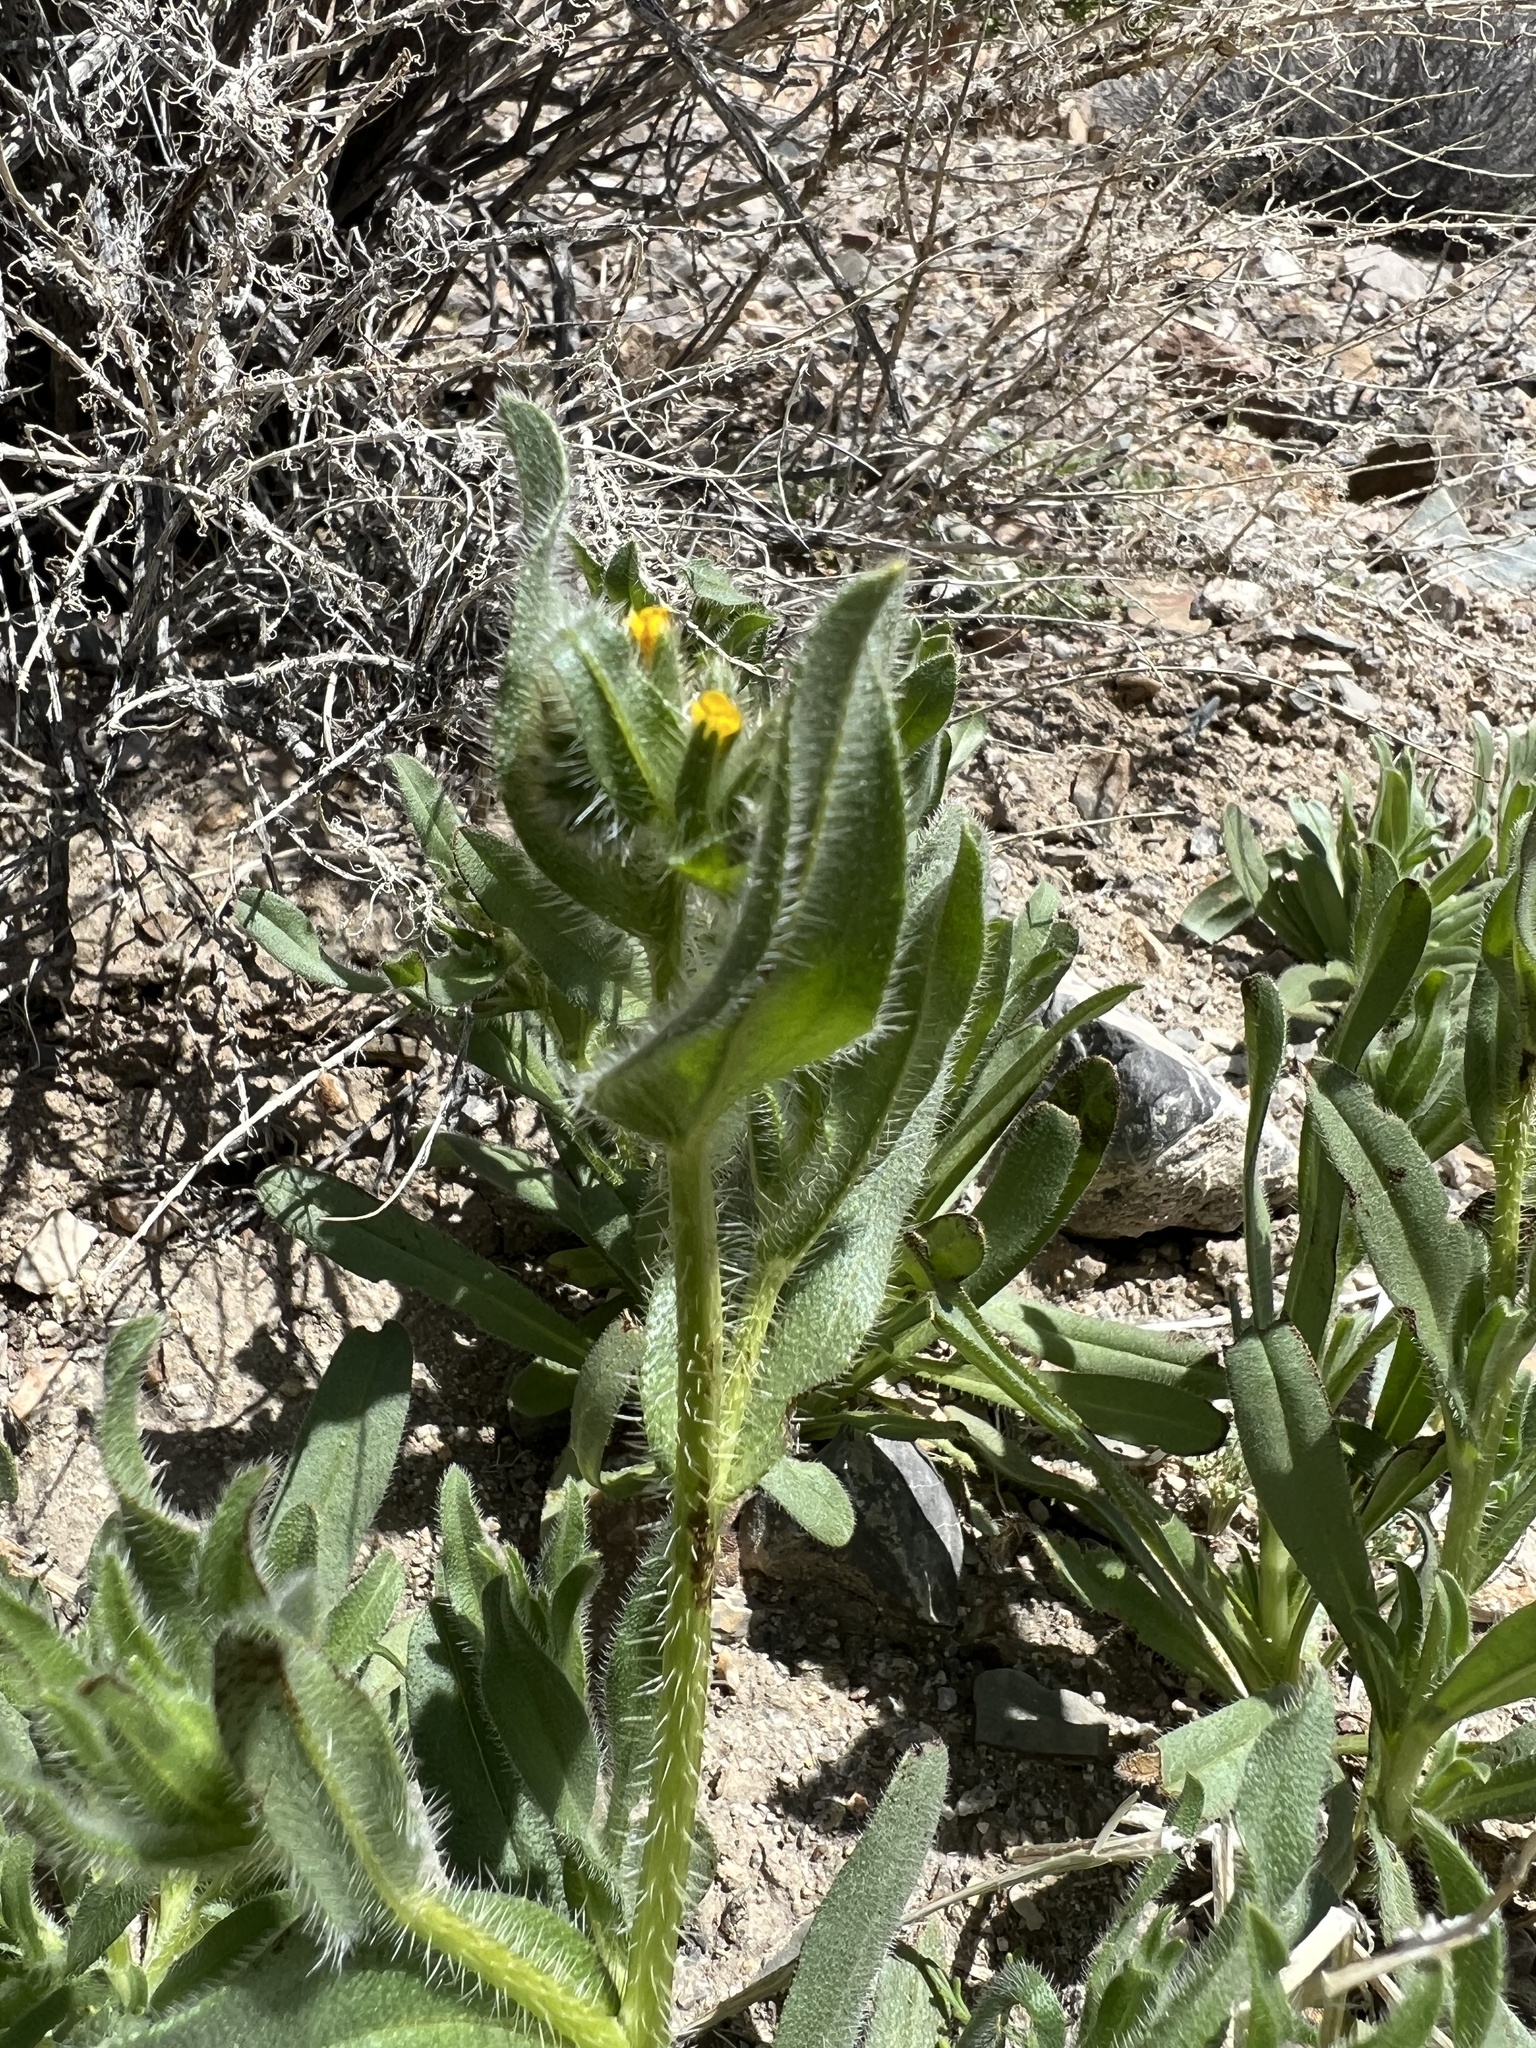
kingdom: Plantae
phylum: Tracheophyta
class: Magnoliopsida
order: Boraginales
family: Boraginaceae
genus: Amsinckia
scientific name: Amsinckia tessellata
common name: Tessellate fiddleneck
